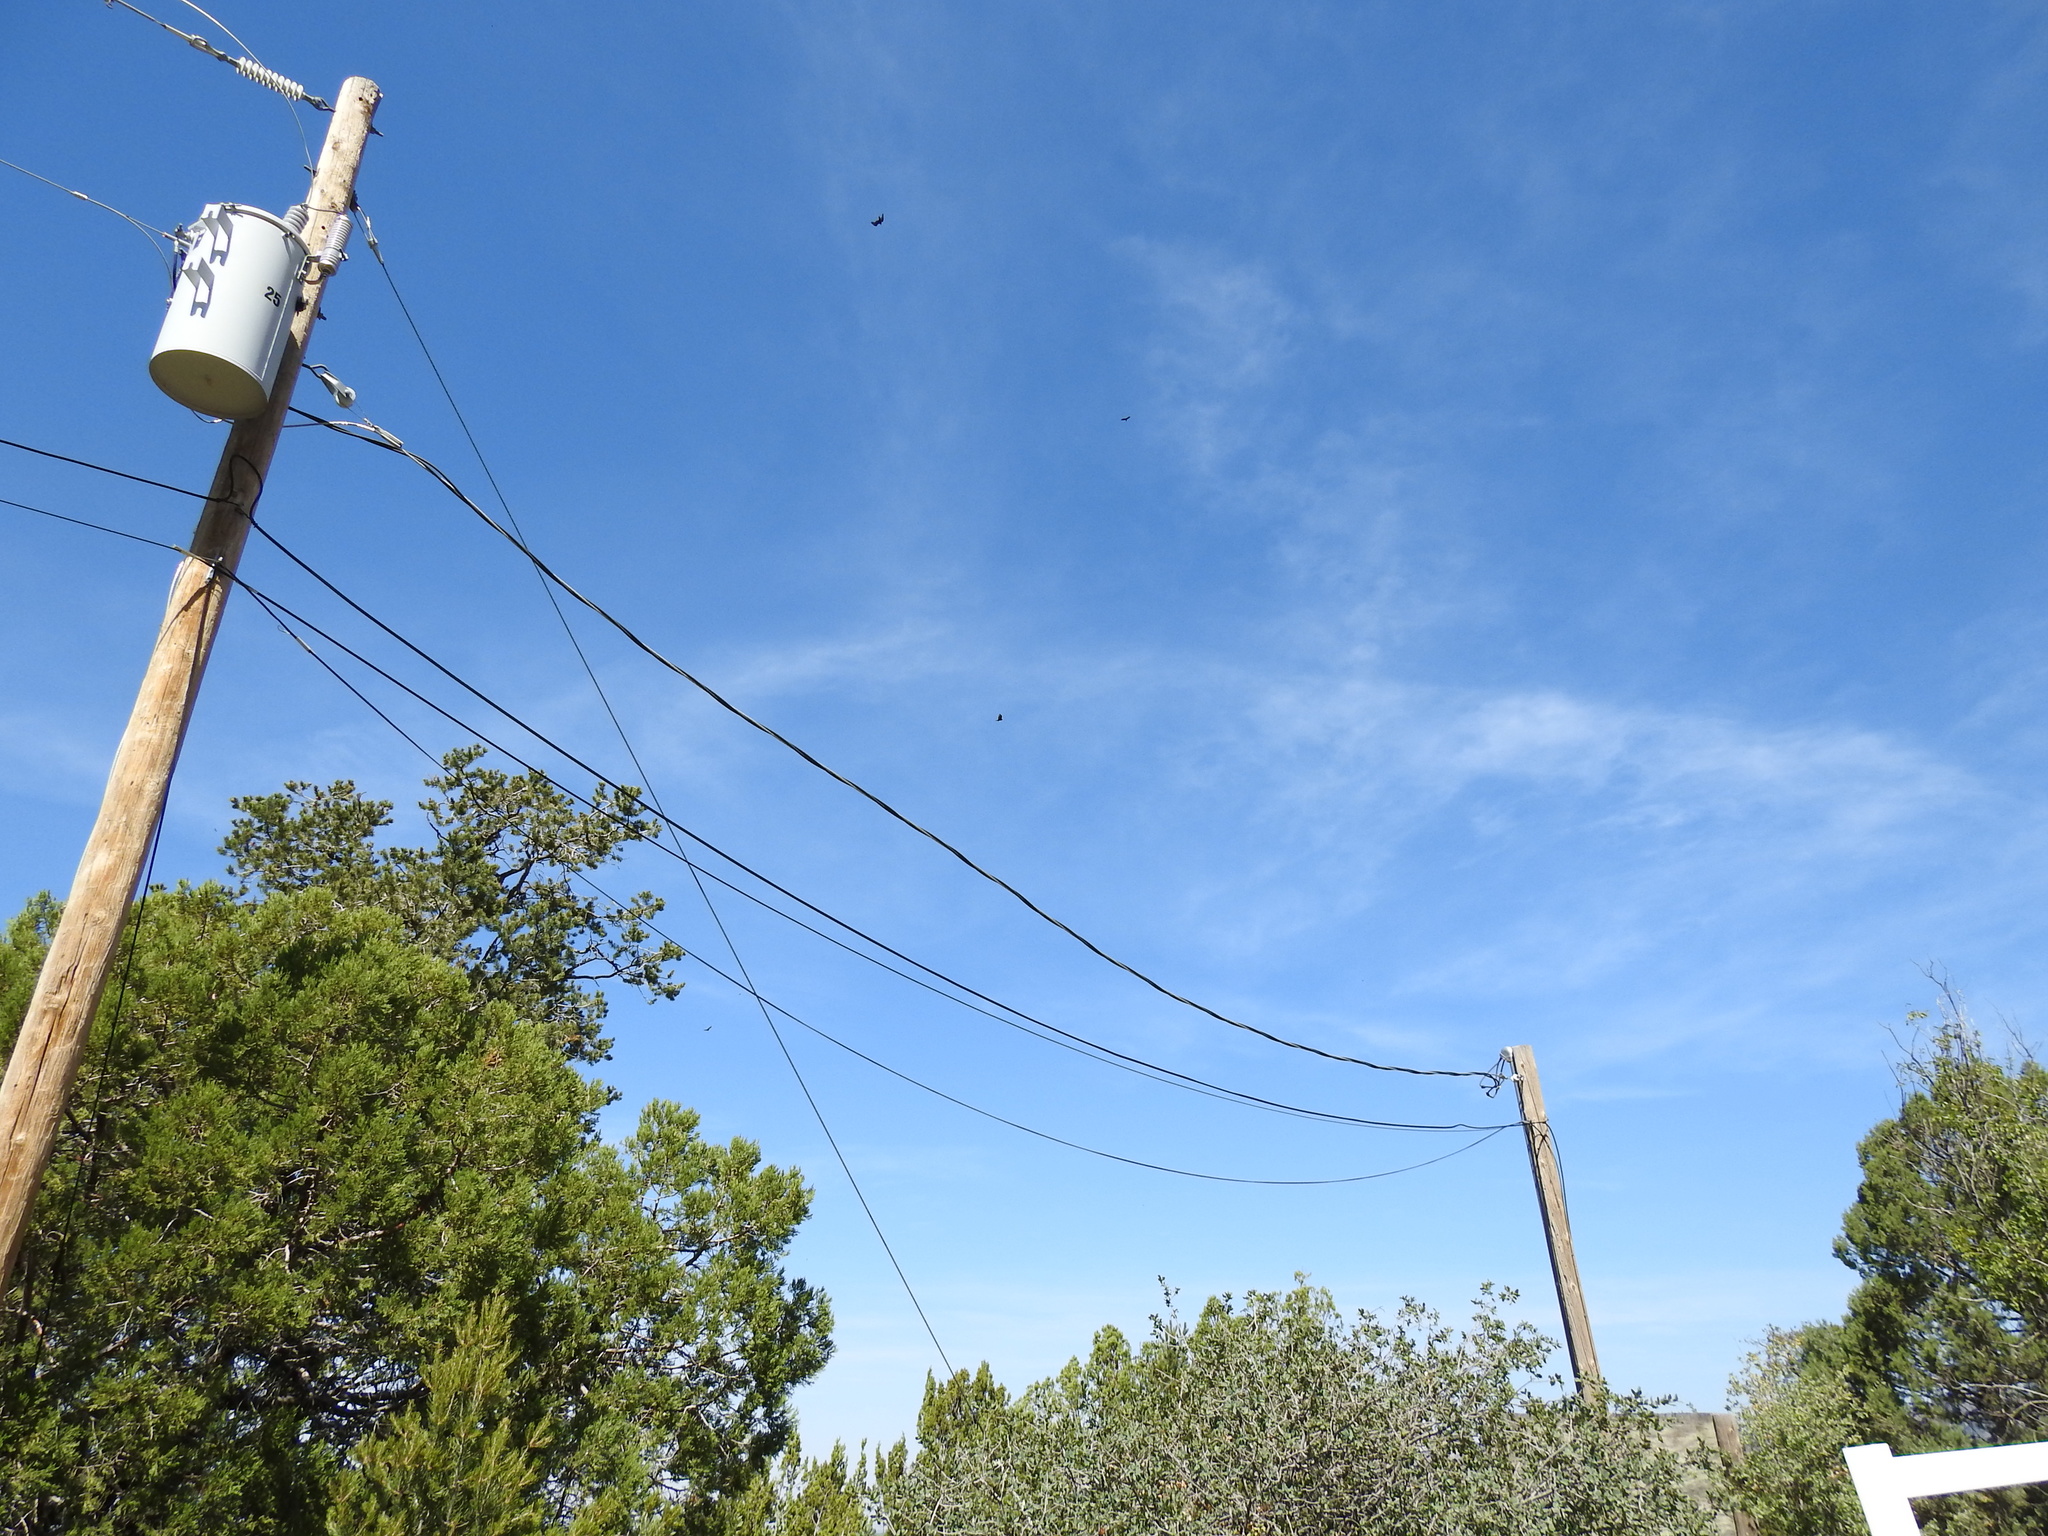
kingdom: Animalia
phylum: Chordata
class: Aves
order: Accipitriformes
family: Cathartidae
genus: Cathartes
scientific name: Cathartes aura
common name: Turkey vulture
